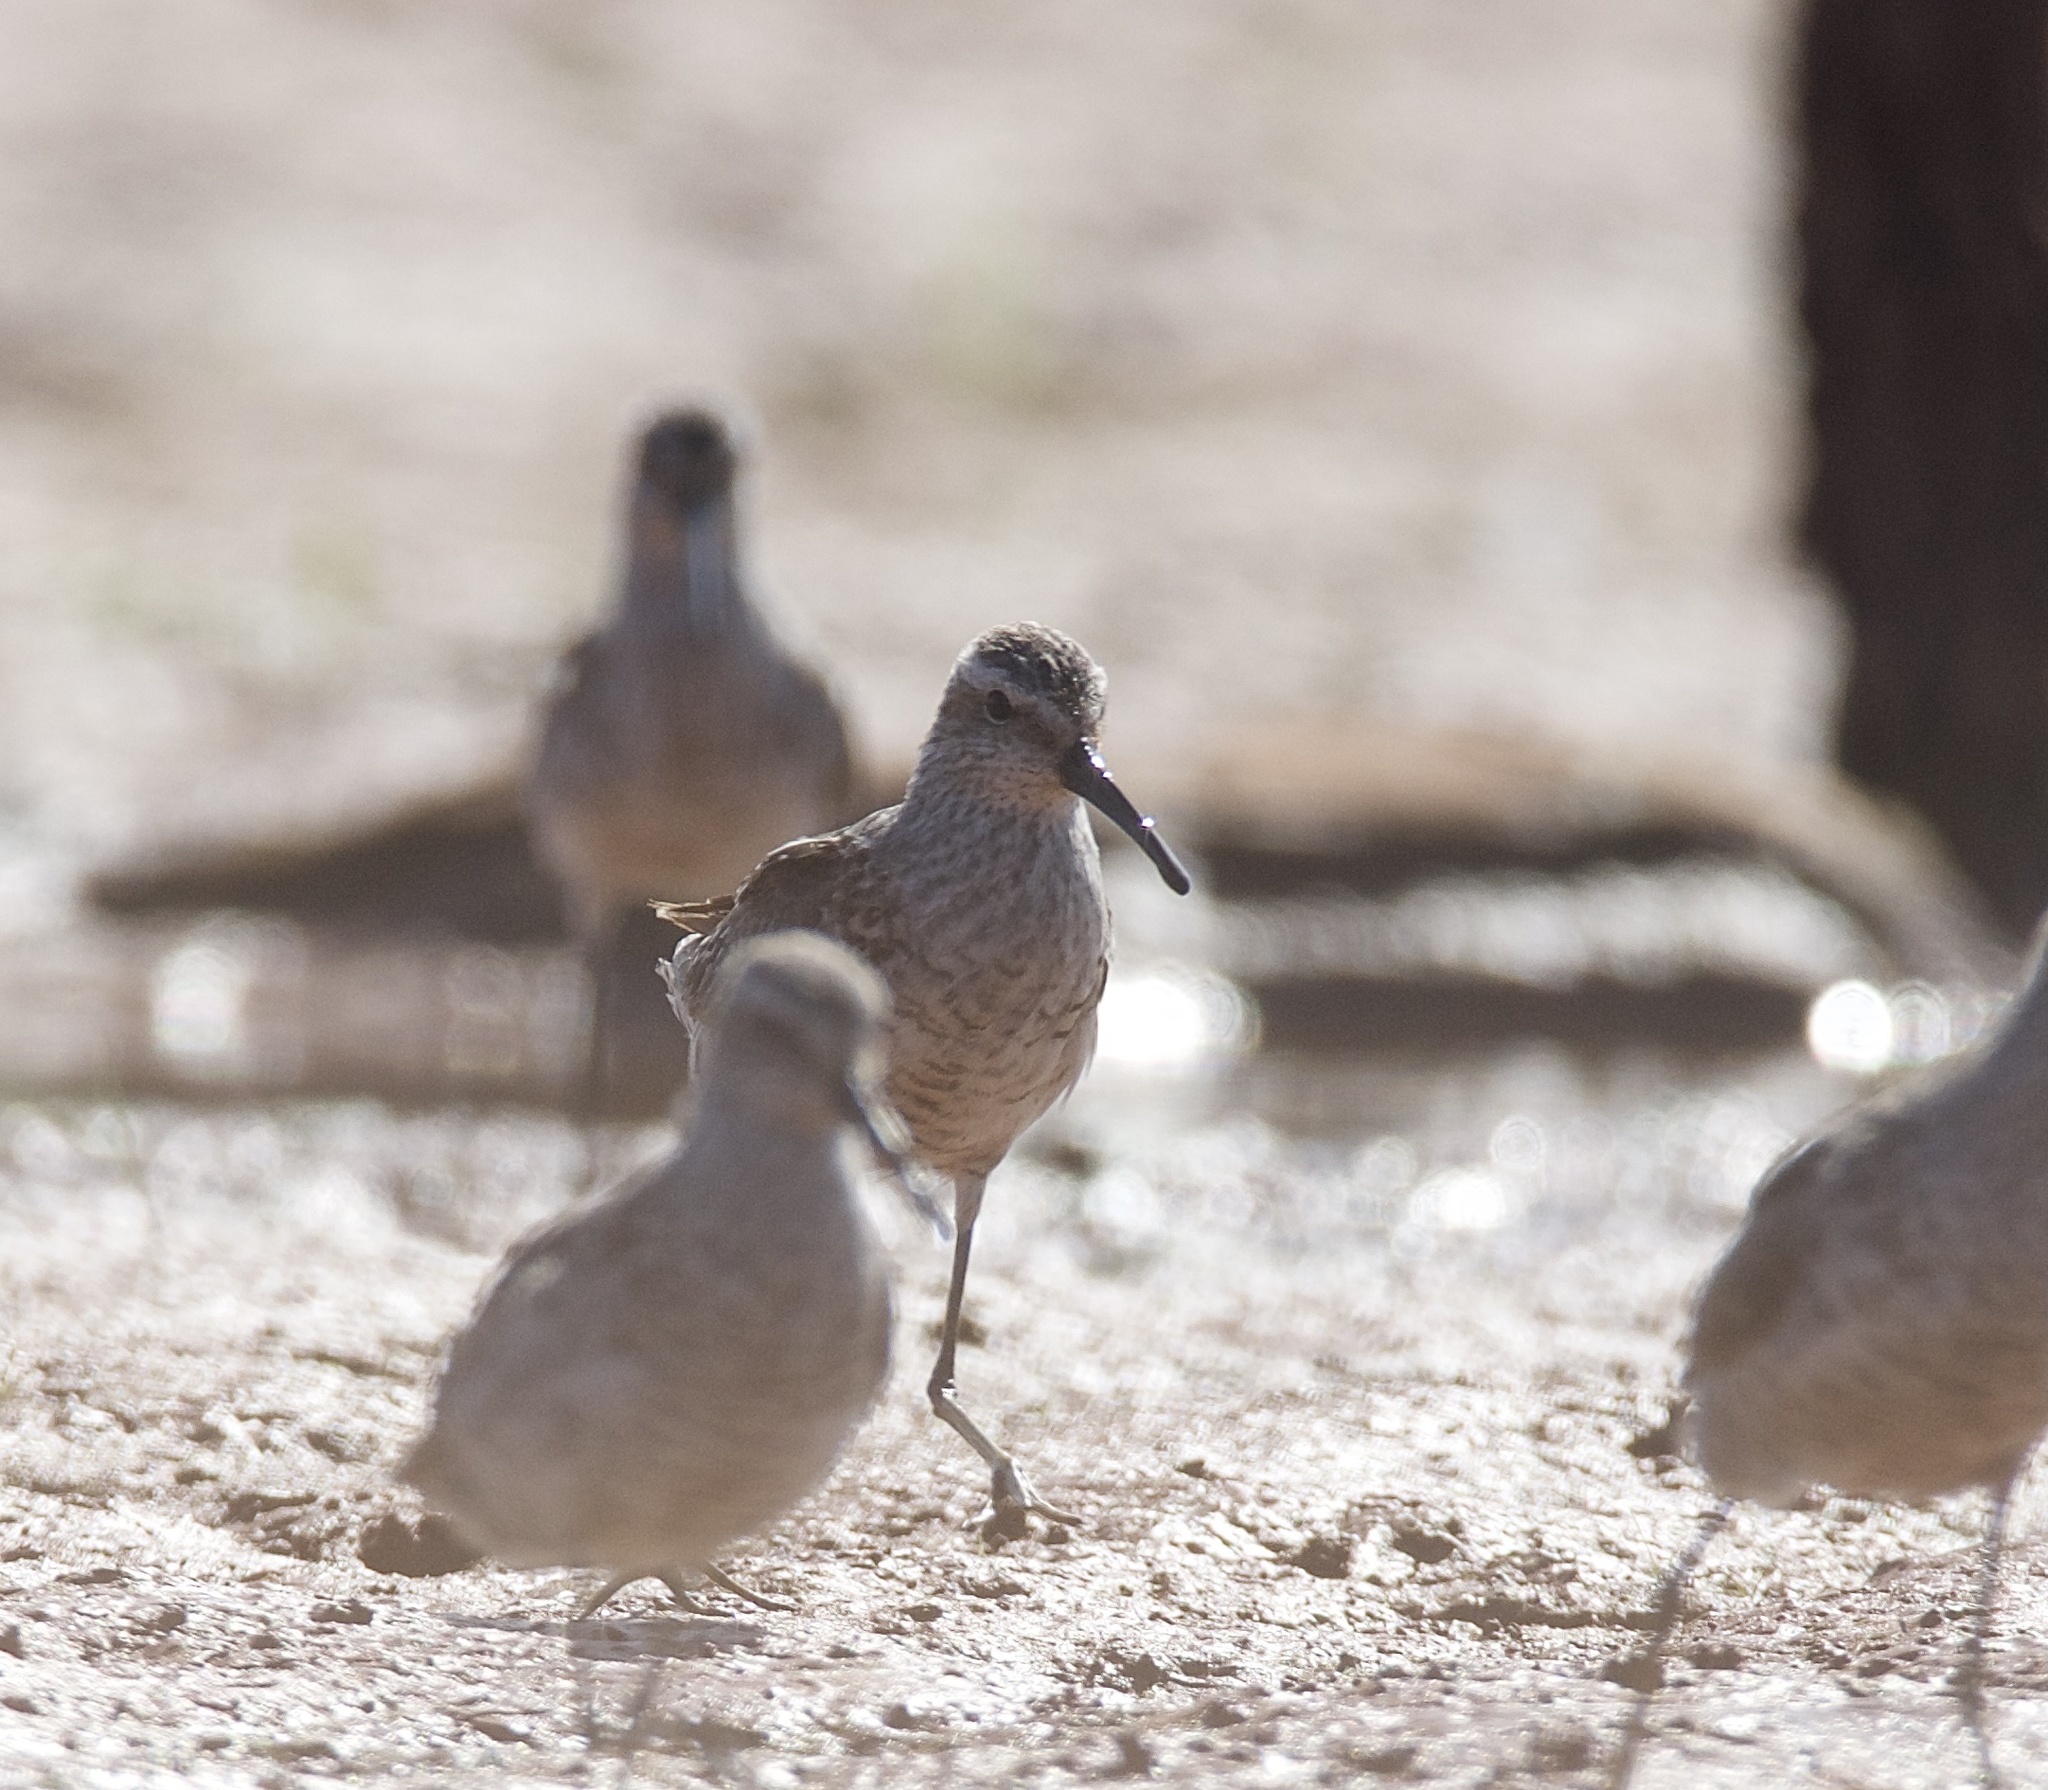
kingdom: Animalia
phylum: Chordata
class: Aves
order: Charadriiformes
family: Scolopacidae
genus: Calidris
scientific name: Calidris himantopus
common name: Stilt sandpiper
